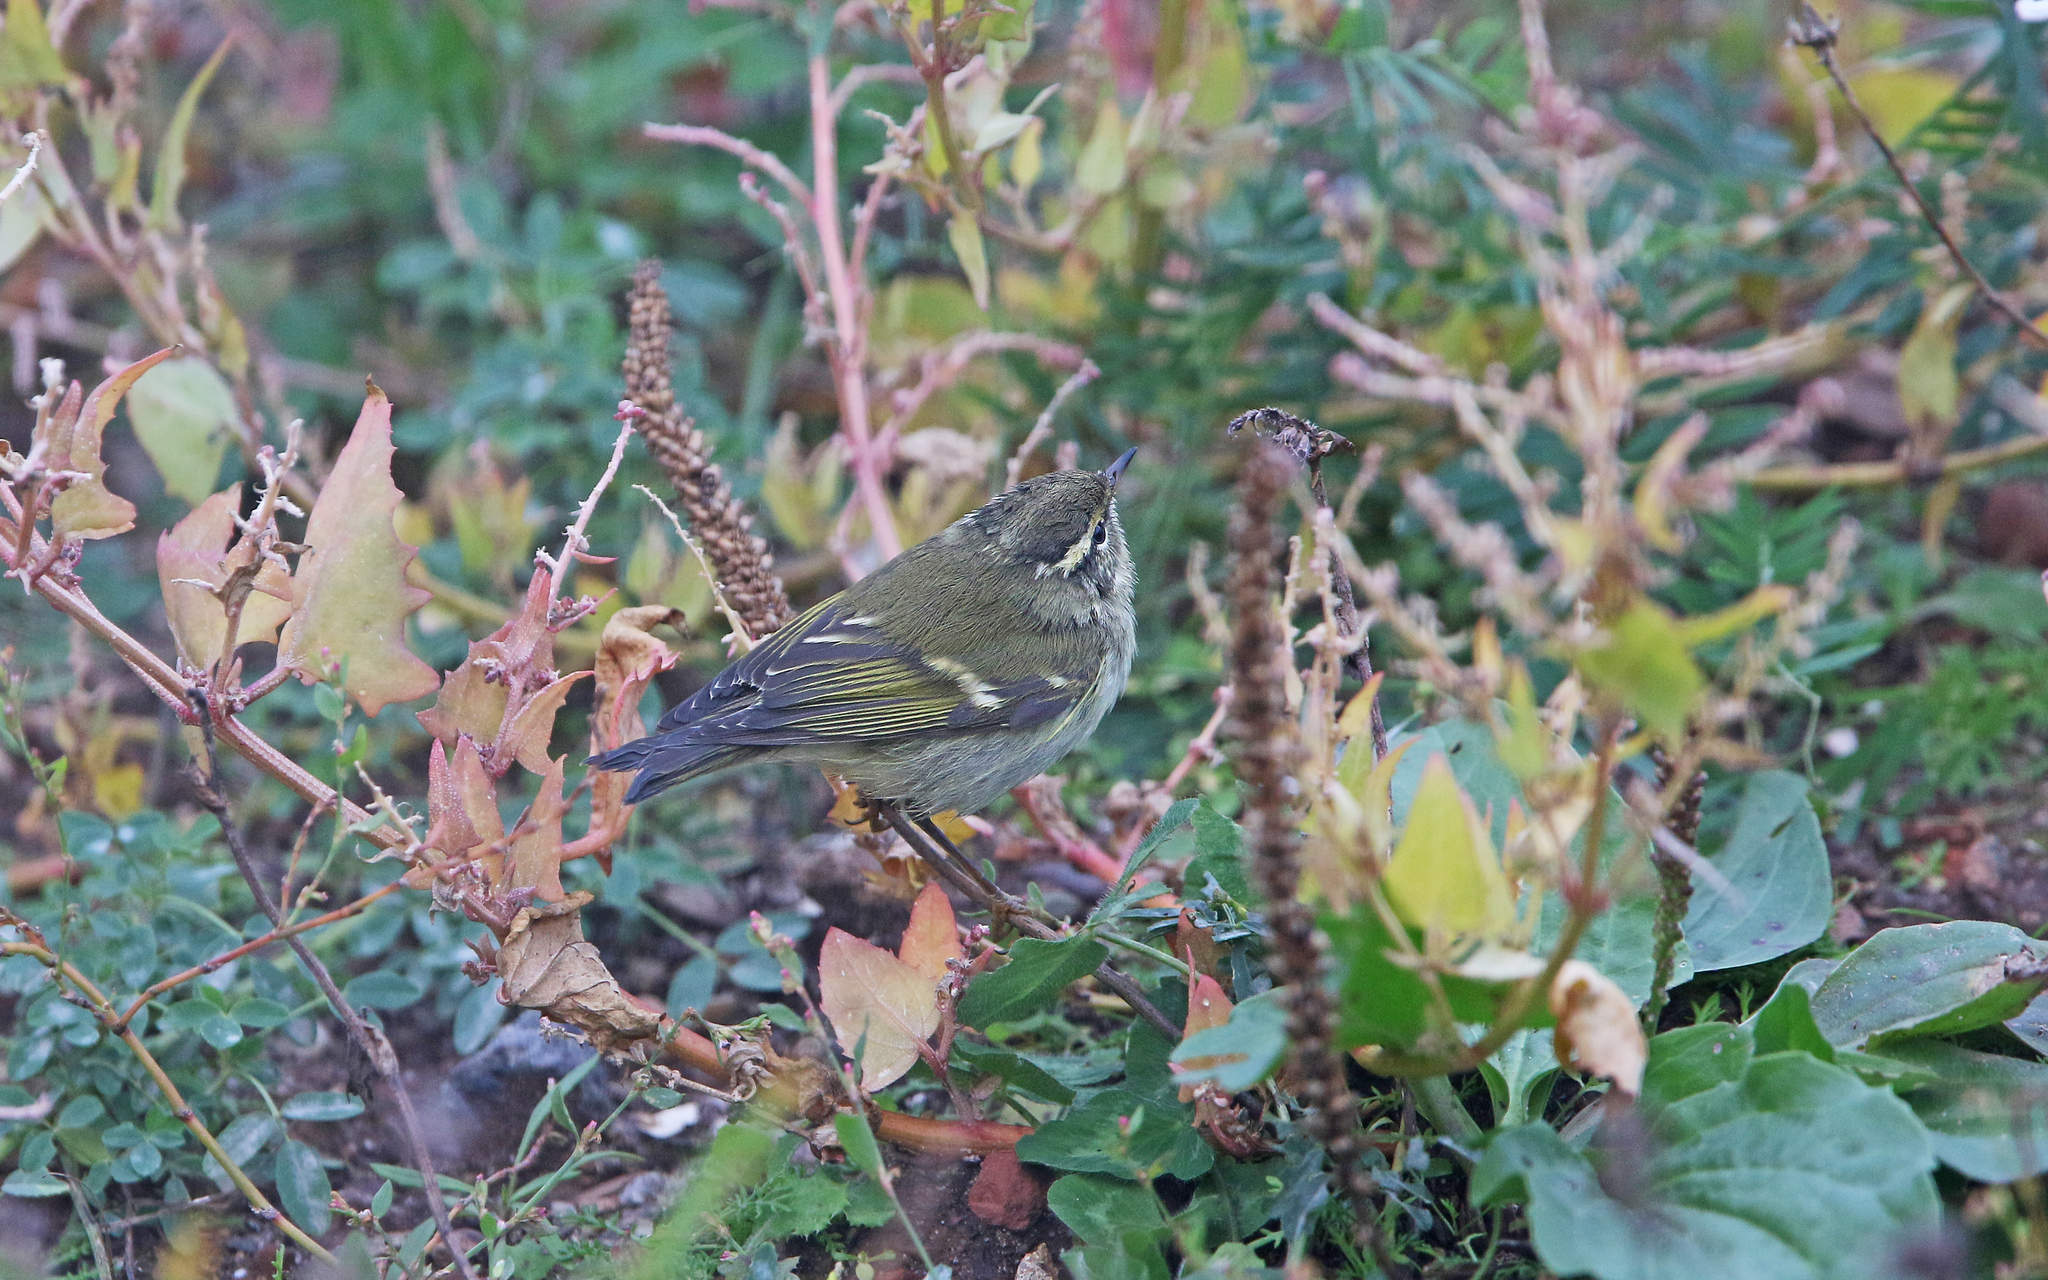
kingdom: Animalia
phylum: Chordata
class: Aves
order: Passeriformes
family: Phylloscopidae
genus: Phylloscopus
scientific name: Phylloscopus inornatus
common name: Yellow-browed warbler
